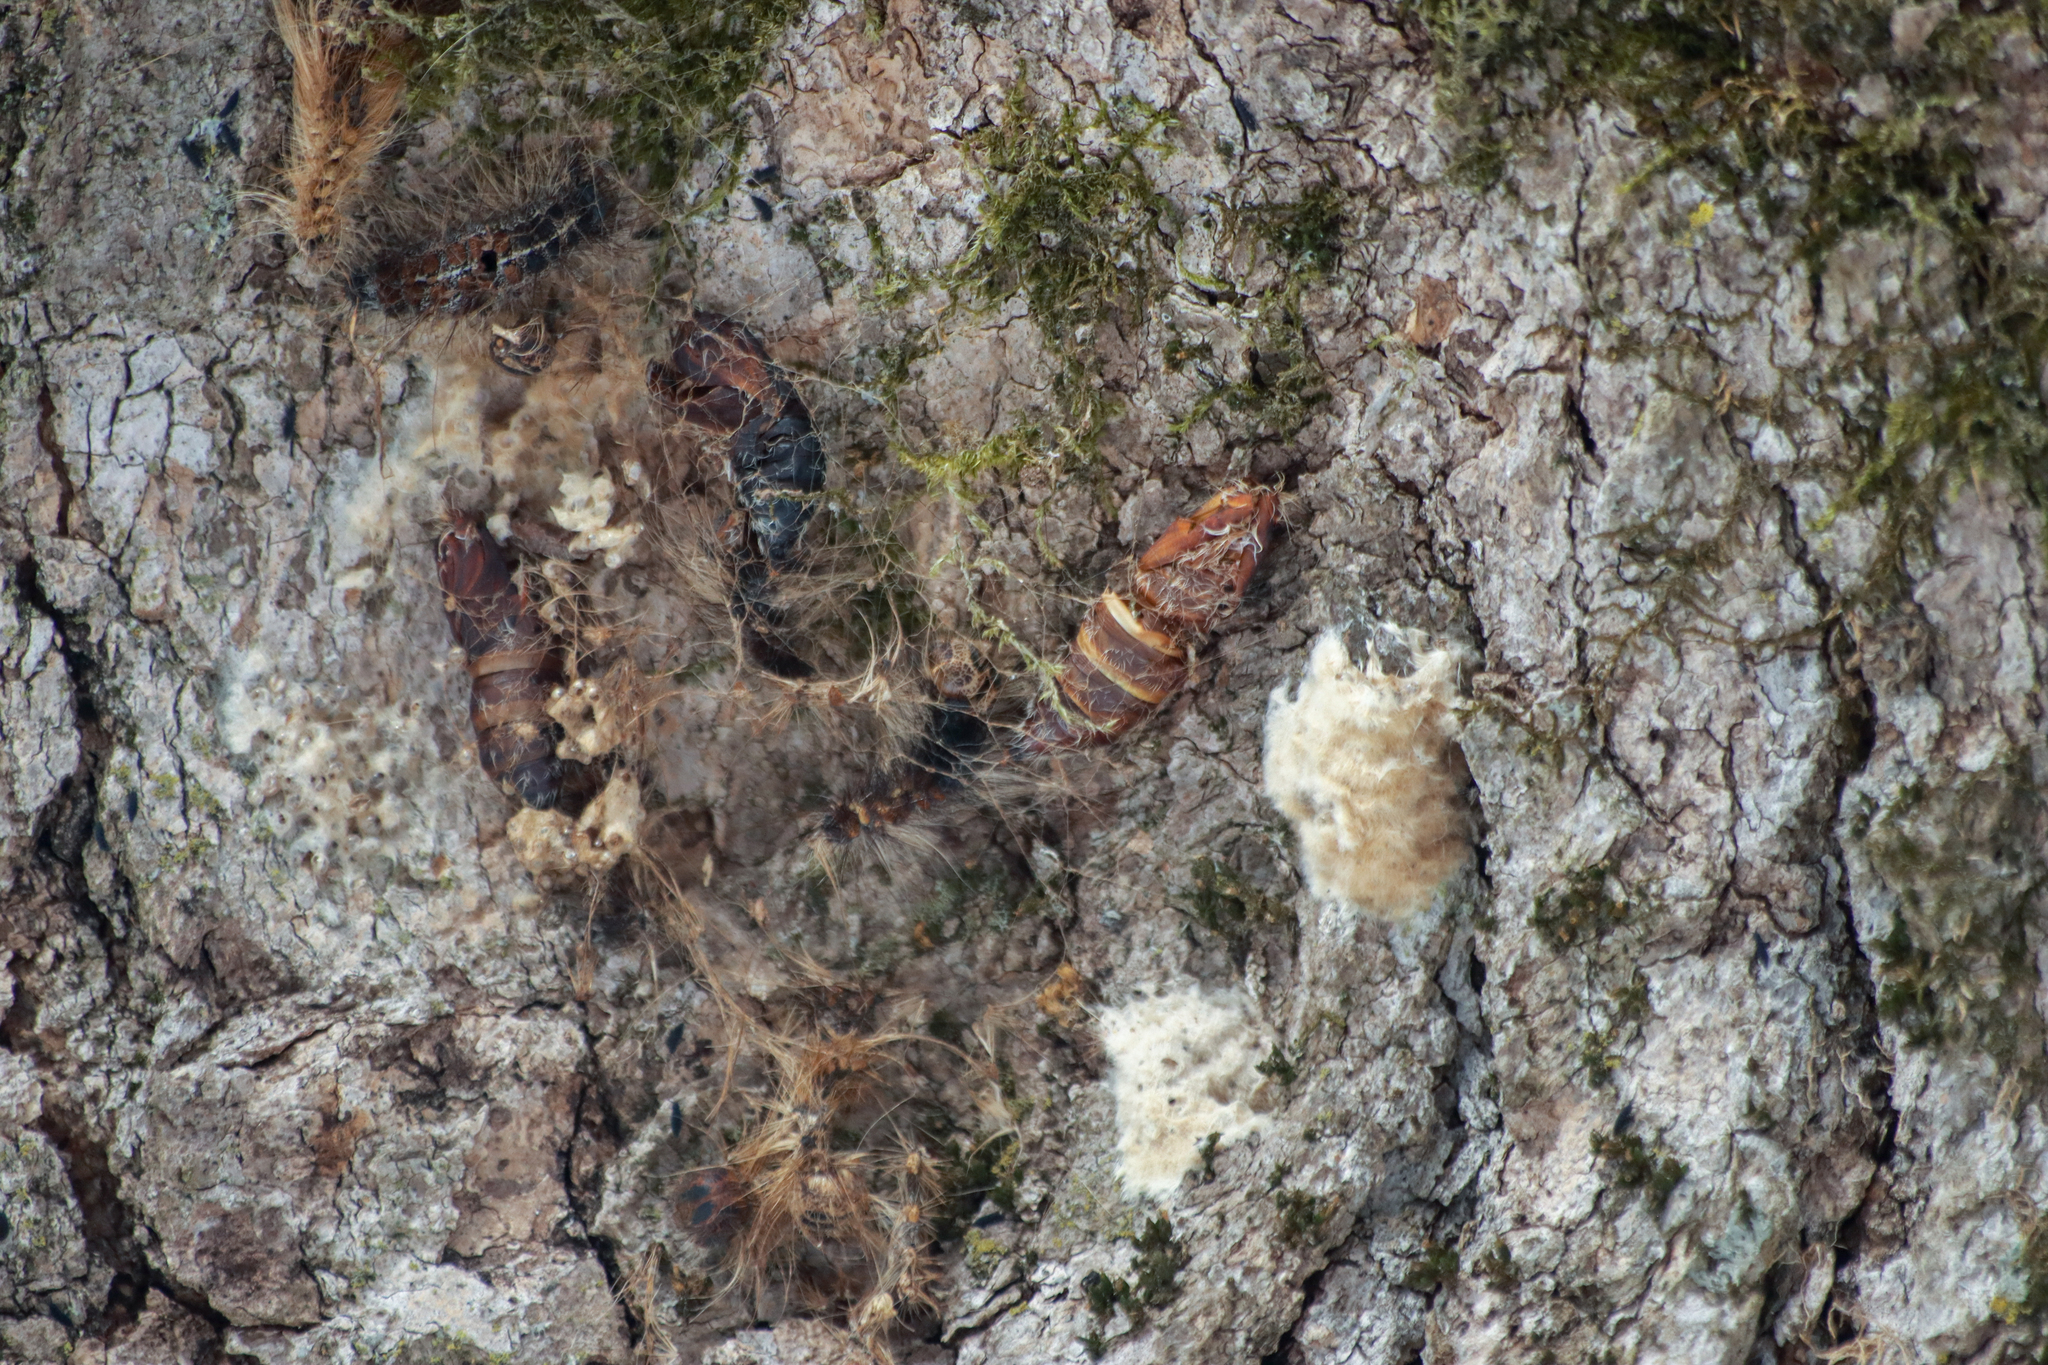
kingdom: Animalia
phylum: Arthropoda
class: Insecta
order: Lepidoptera
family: Erebidae
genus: Lymantria
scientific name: Lymantria dispar
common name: Gypsy moth
